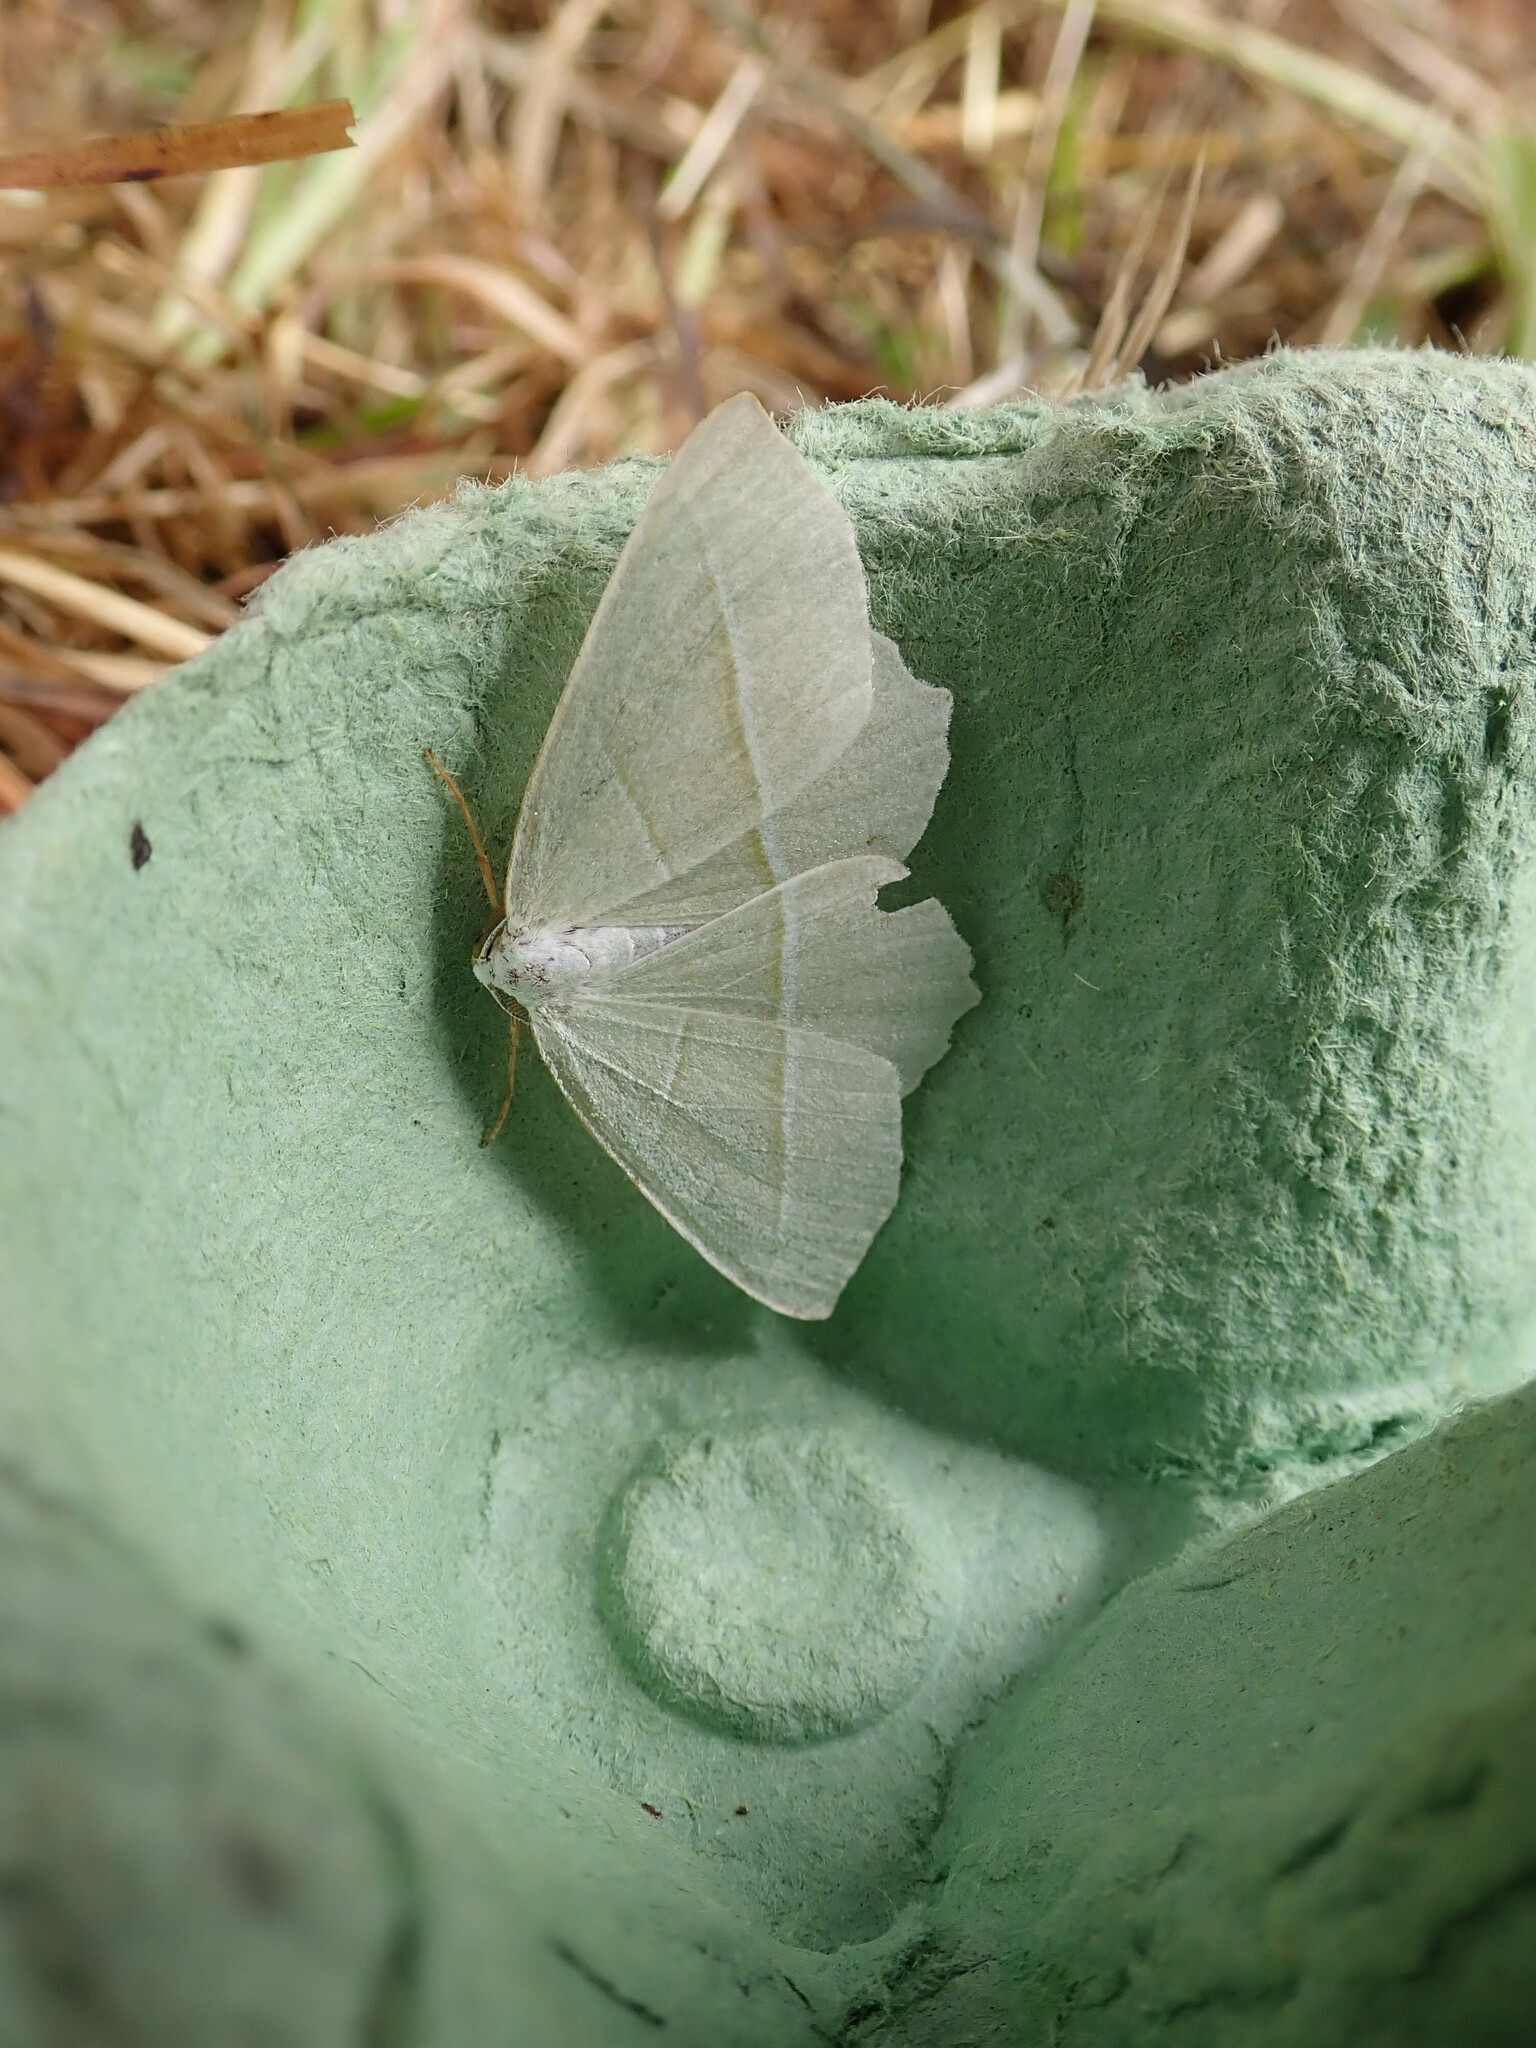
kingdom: Animalia
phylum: Arthropoda
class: Insecta
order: Lepidoptera
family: Geometridae
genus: Campaea
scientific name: Campaea margaritaria
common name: Light emerald
